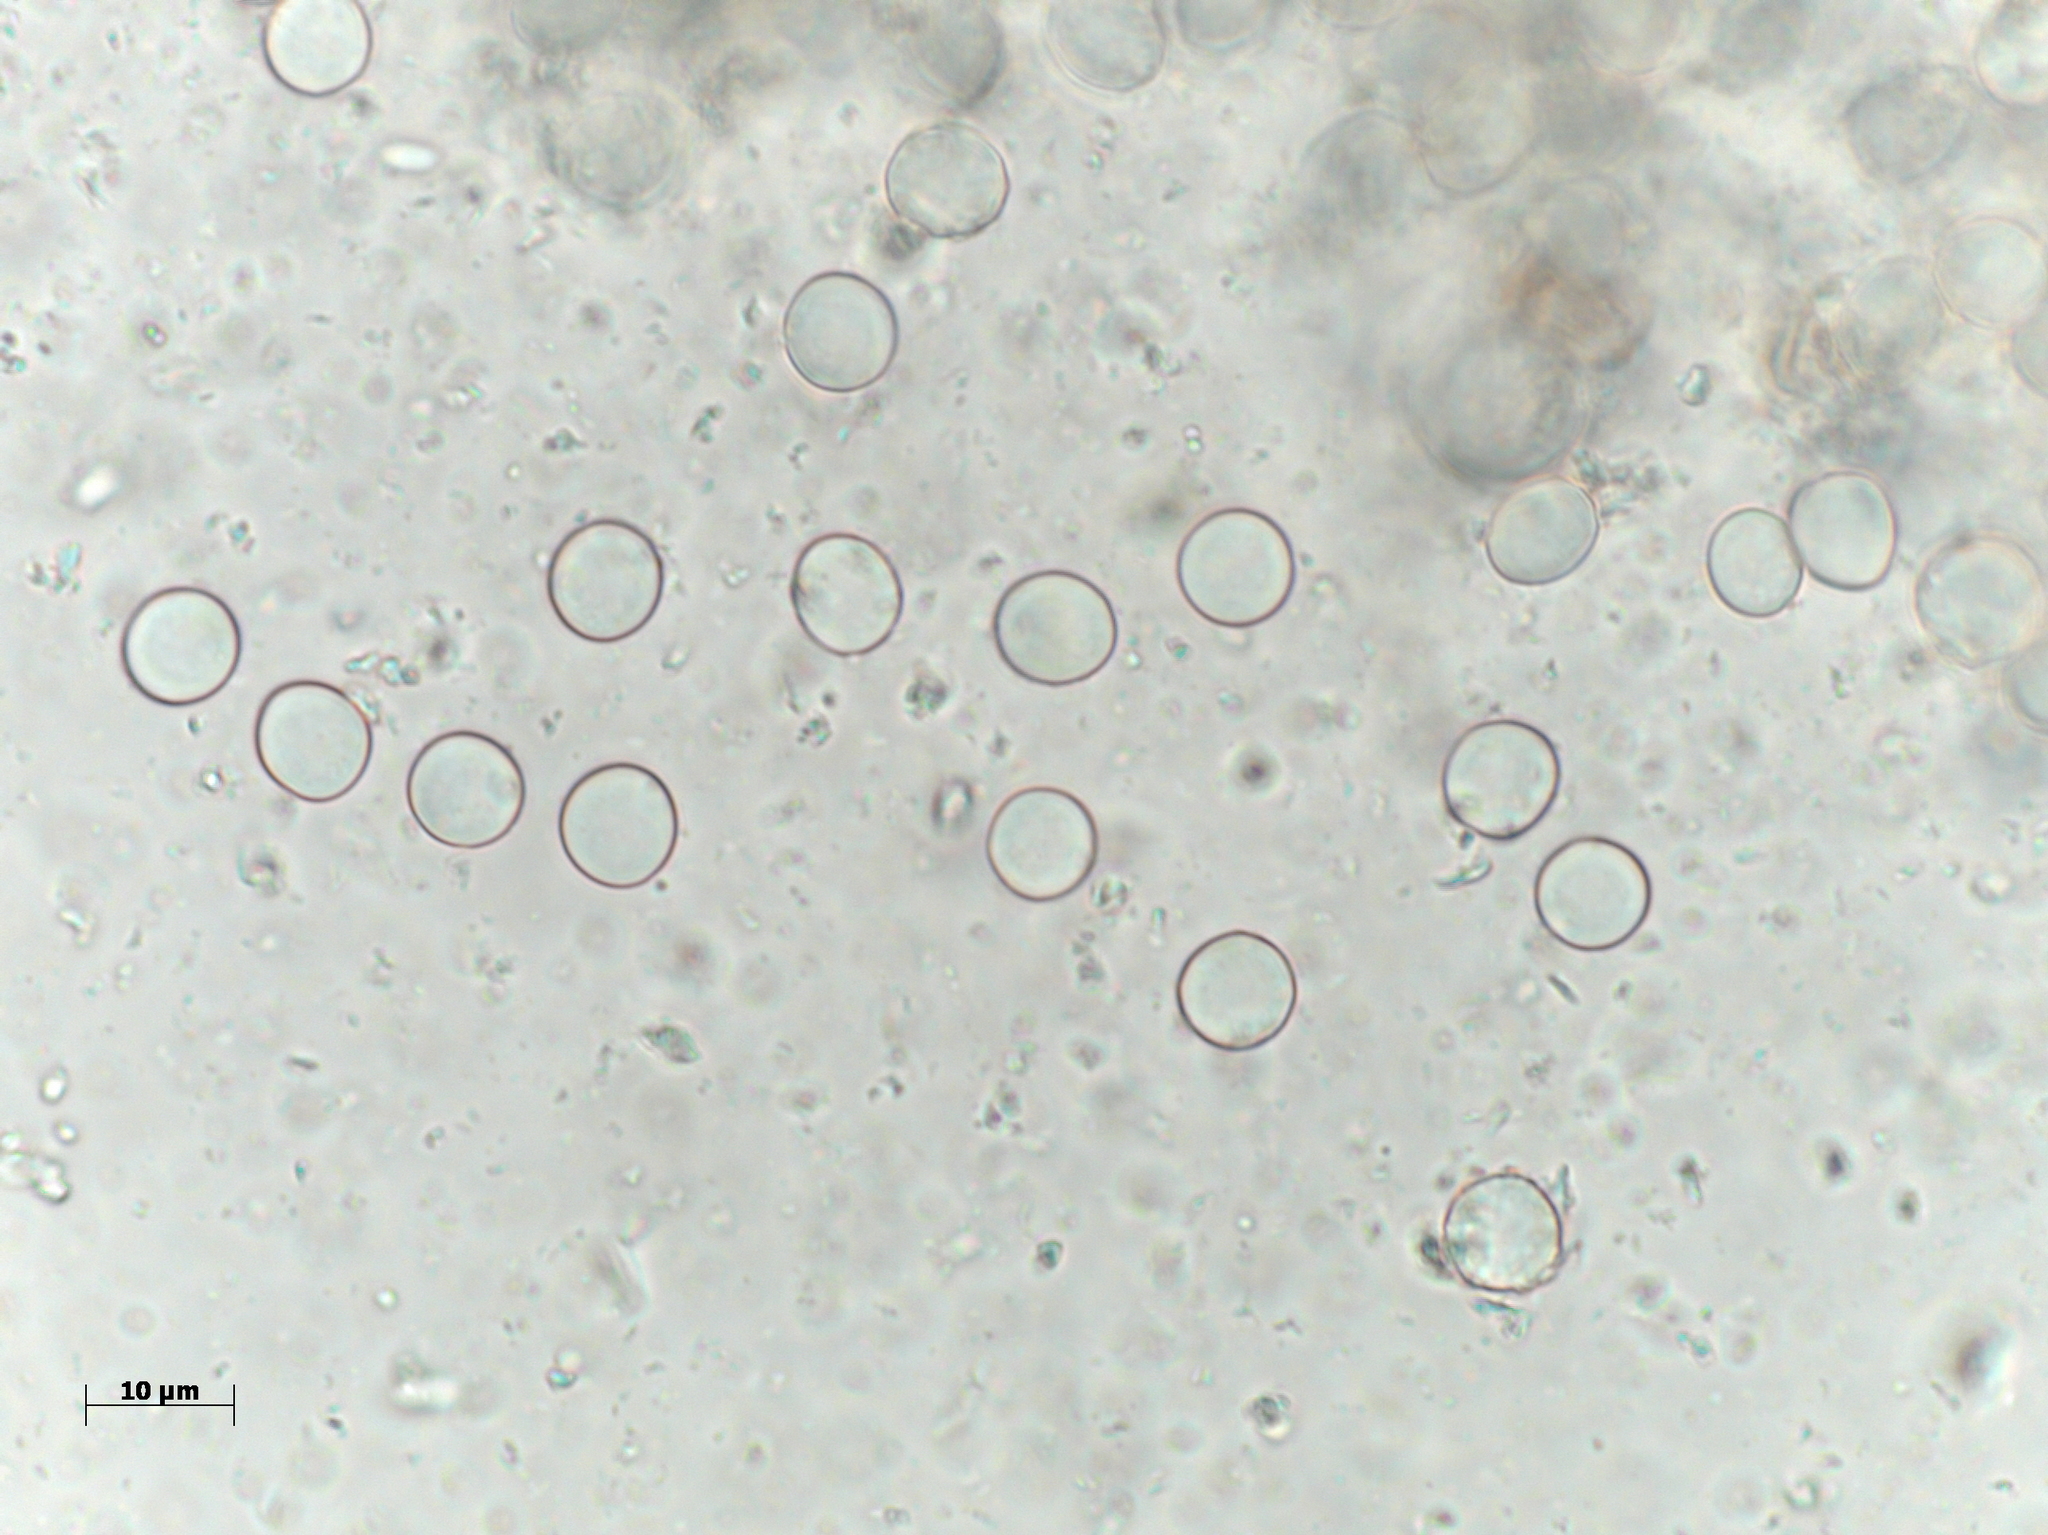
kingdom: Fungi
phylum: Ascomycota
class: Pezizomycetes
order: Pezizales
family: Pyronemataceae
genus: Orbicula
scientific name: Orbicula parietina
